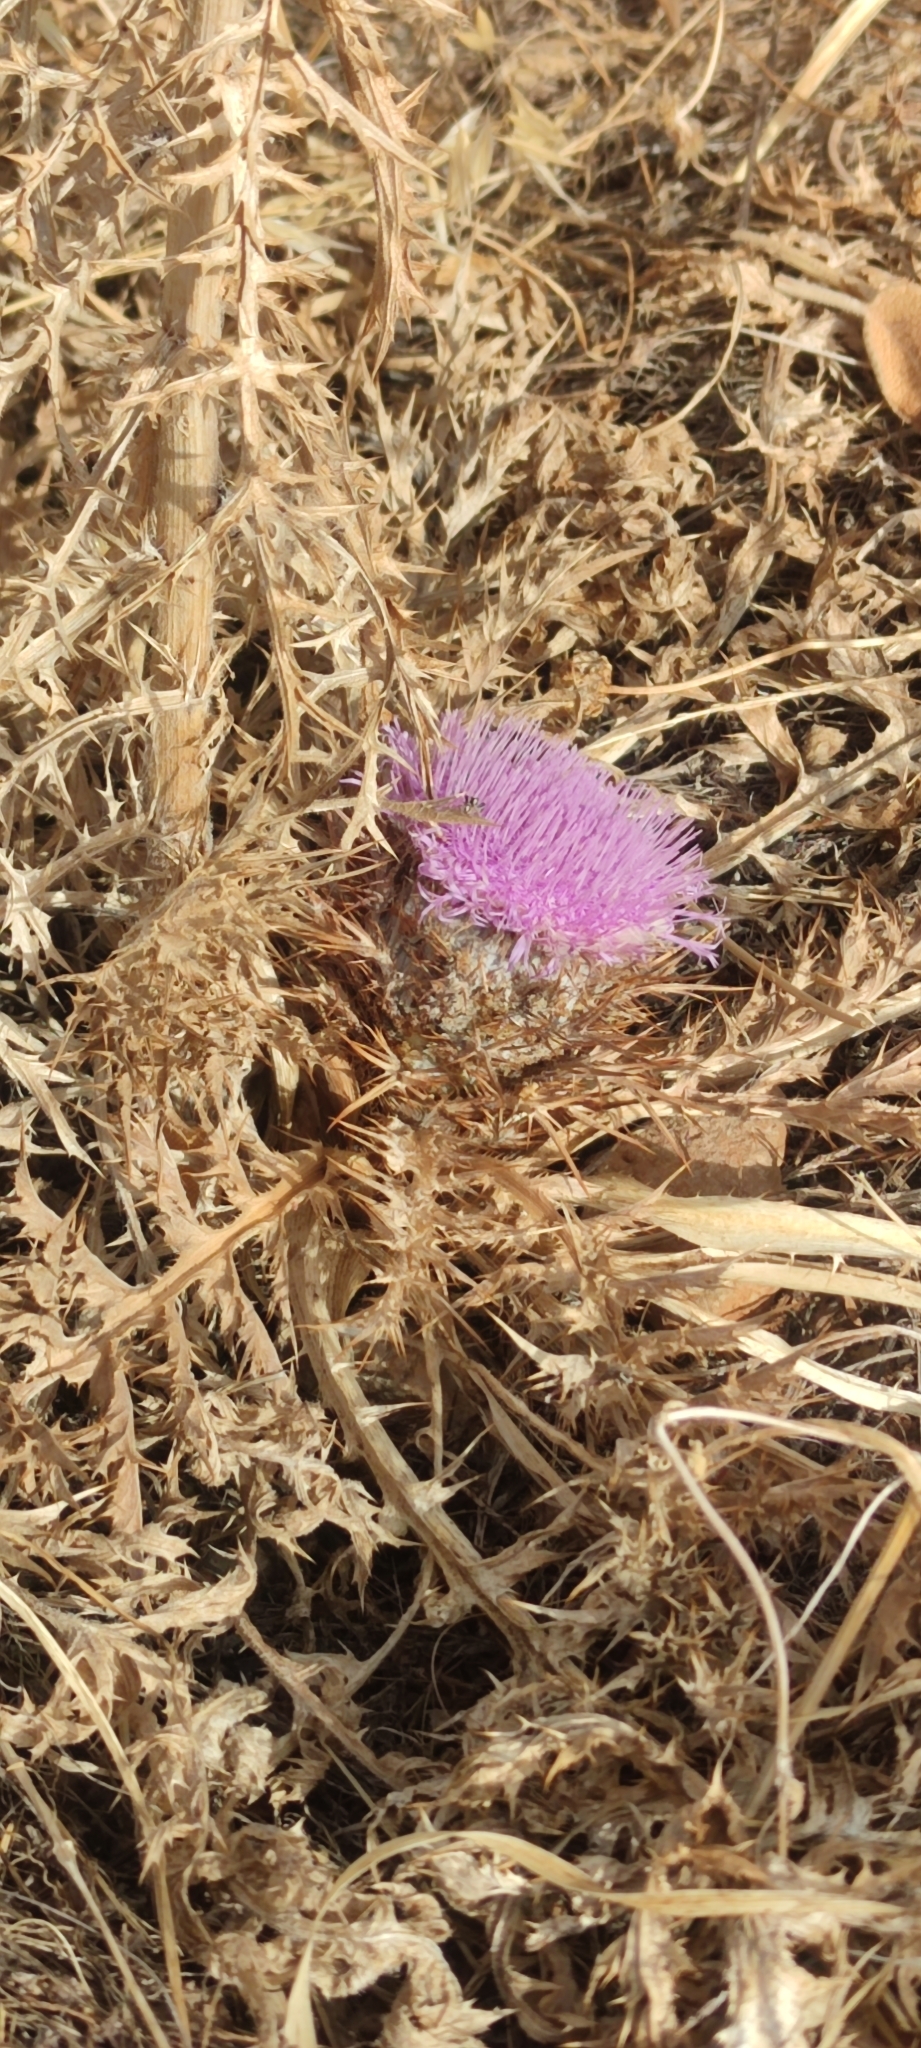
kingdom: Plantae
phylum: Tracheophyta
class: Magnoliopsida
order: Asterales
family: Asteraceae
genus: Chamaeleon
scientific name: Chamaeleon gummifer
